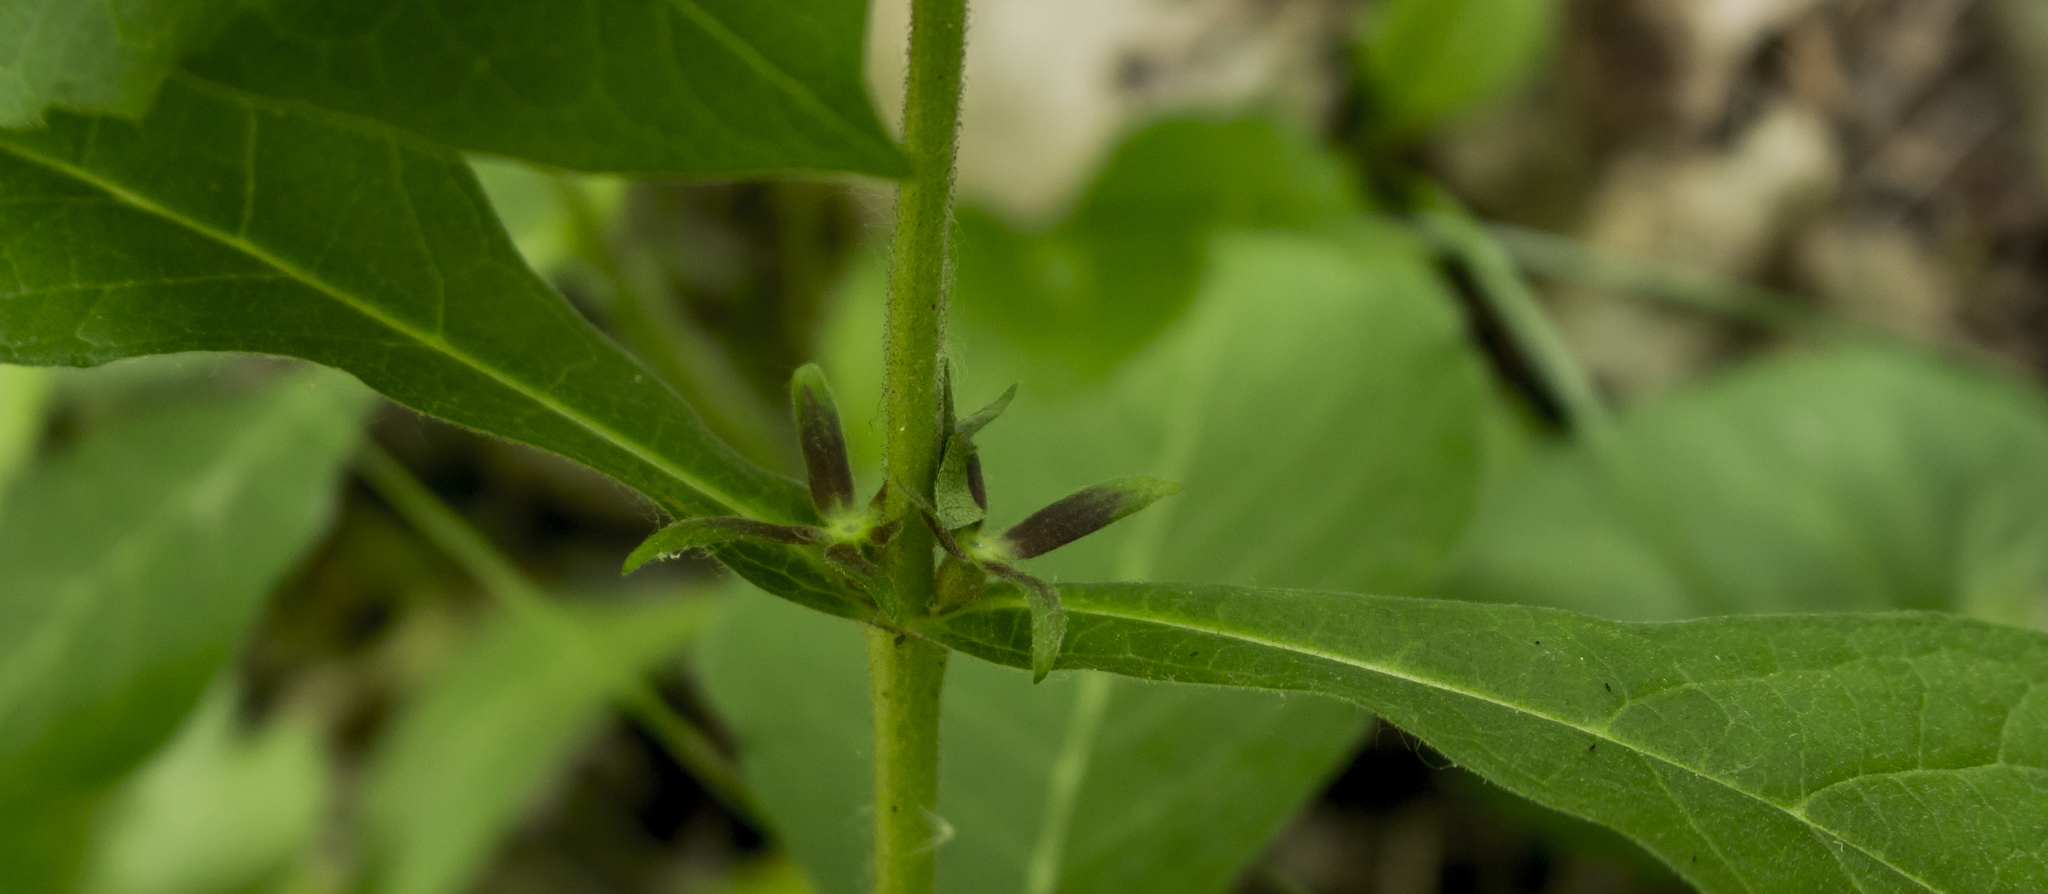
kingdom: Plantae
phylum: Tracheophyta
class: Magnoliopsida
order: Dipsacales
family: Caprifoliaceae
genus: Triosteum
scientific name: Triosteum aurantiacum
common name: Coffee tinker's-weed
